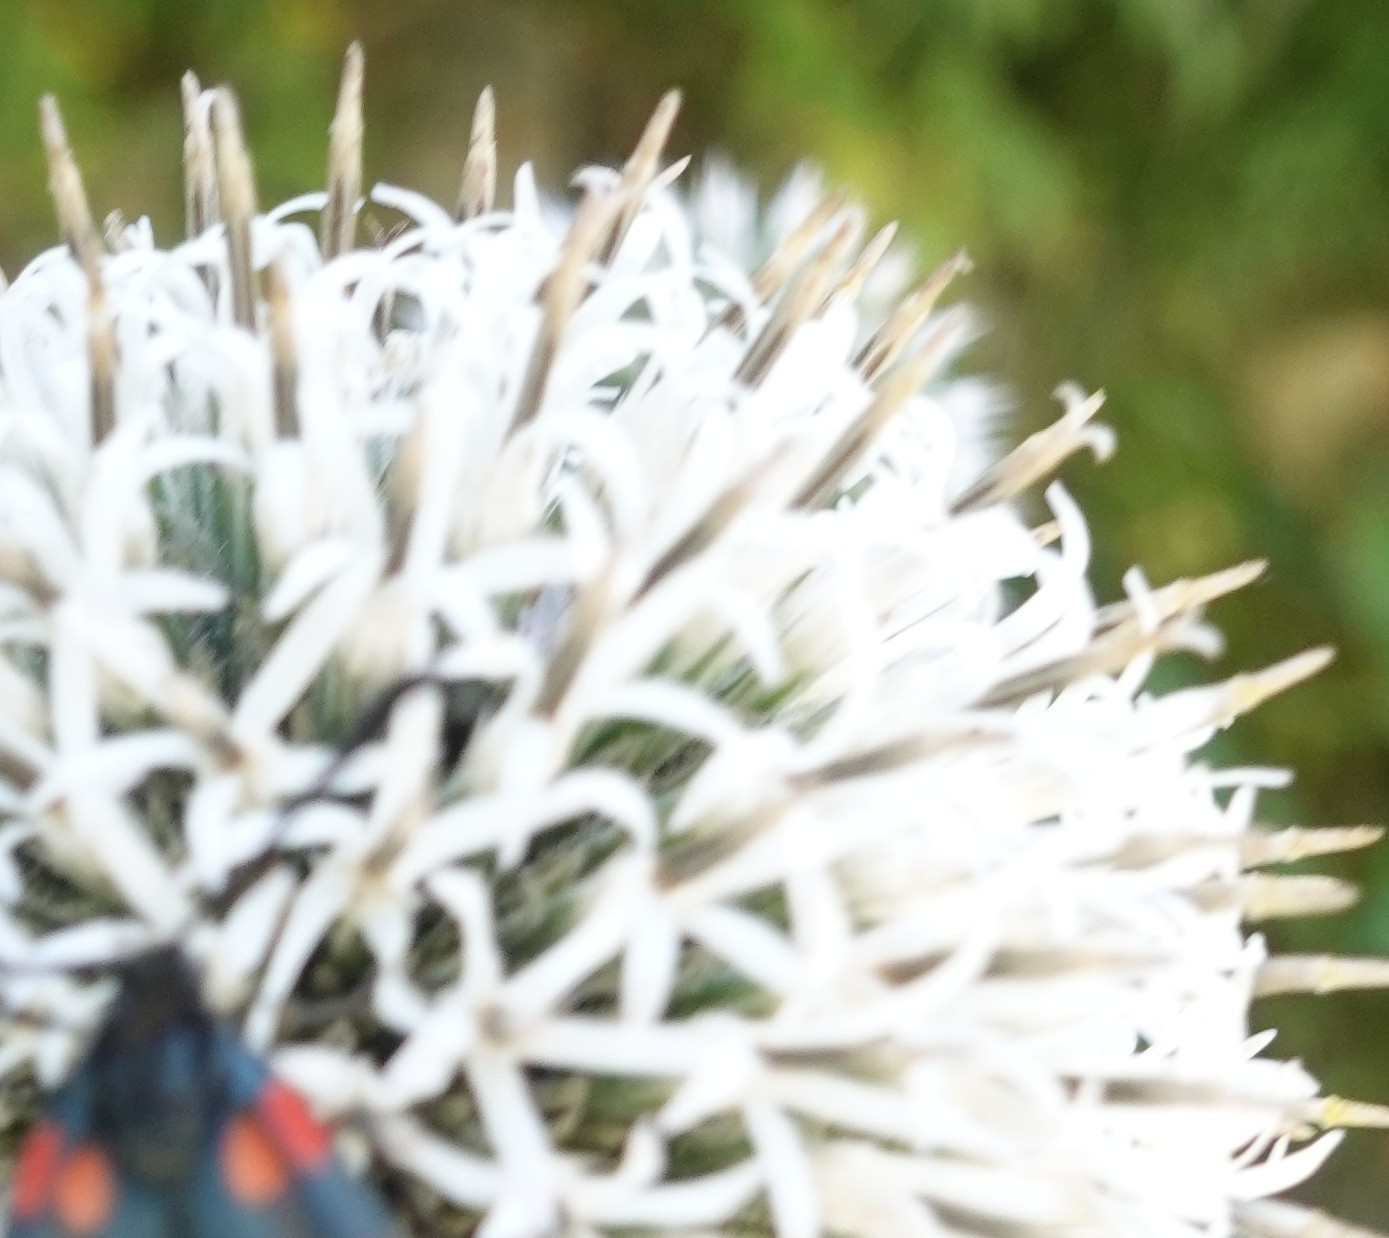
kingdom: Plantae
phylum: Tracheophyta
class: Magnoliopsida
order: Asterales
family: Asteraceae
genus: Echinops
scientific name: Echinops sphaerocephalus
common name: Glandular globe-thistle
